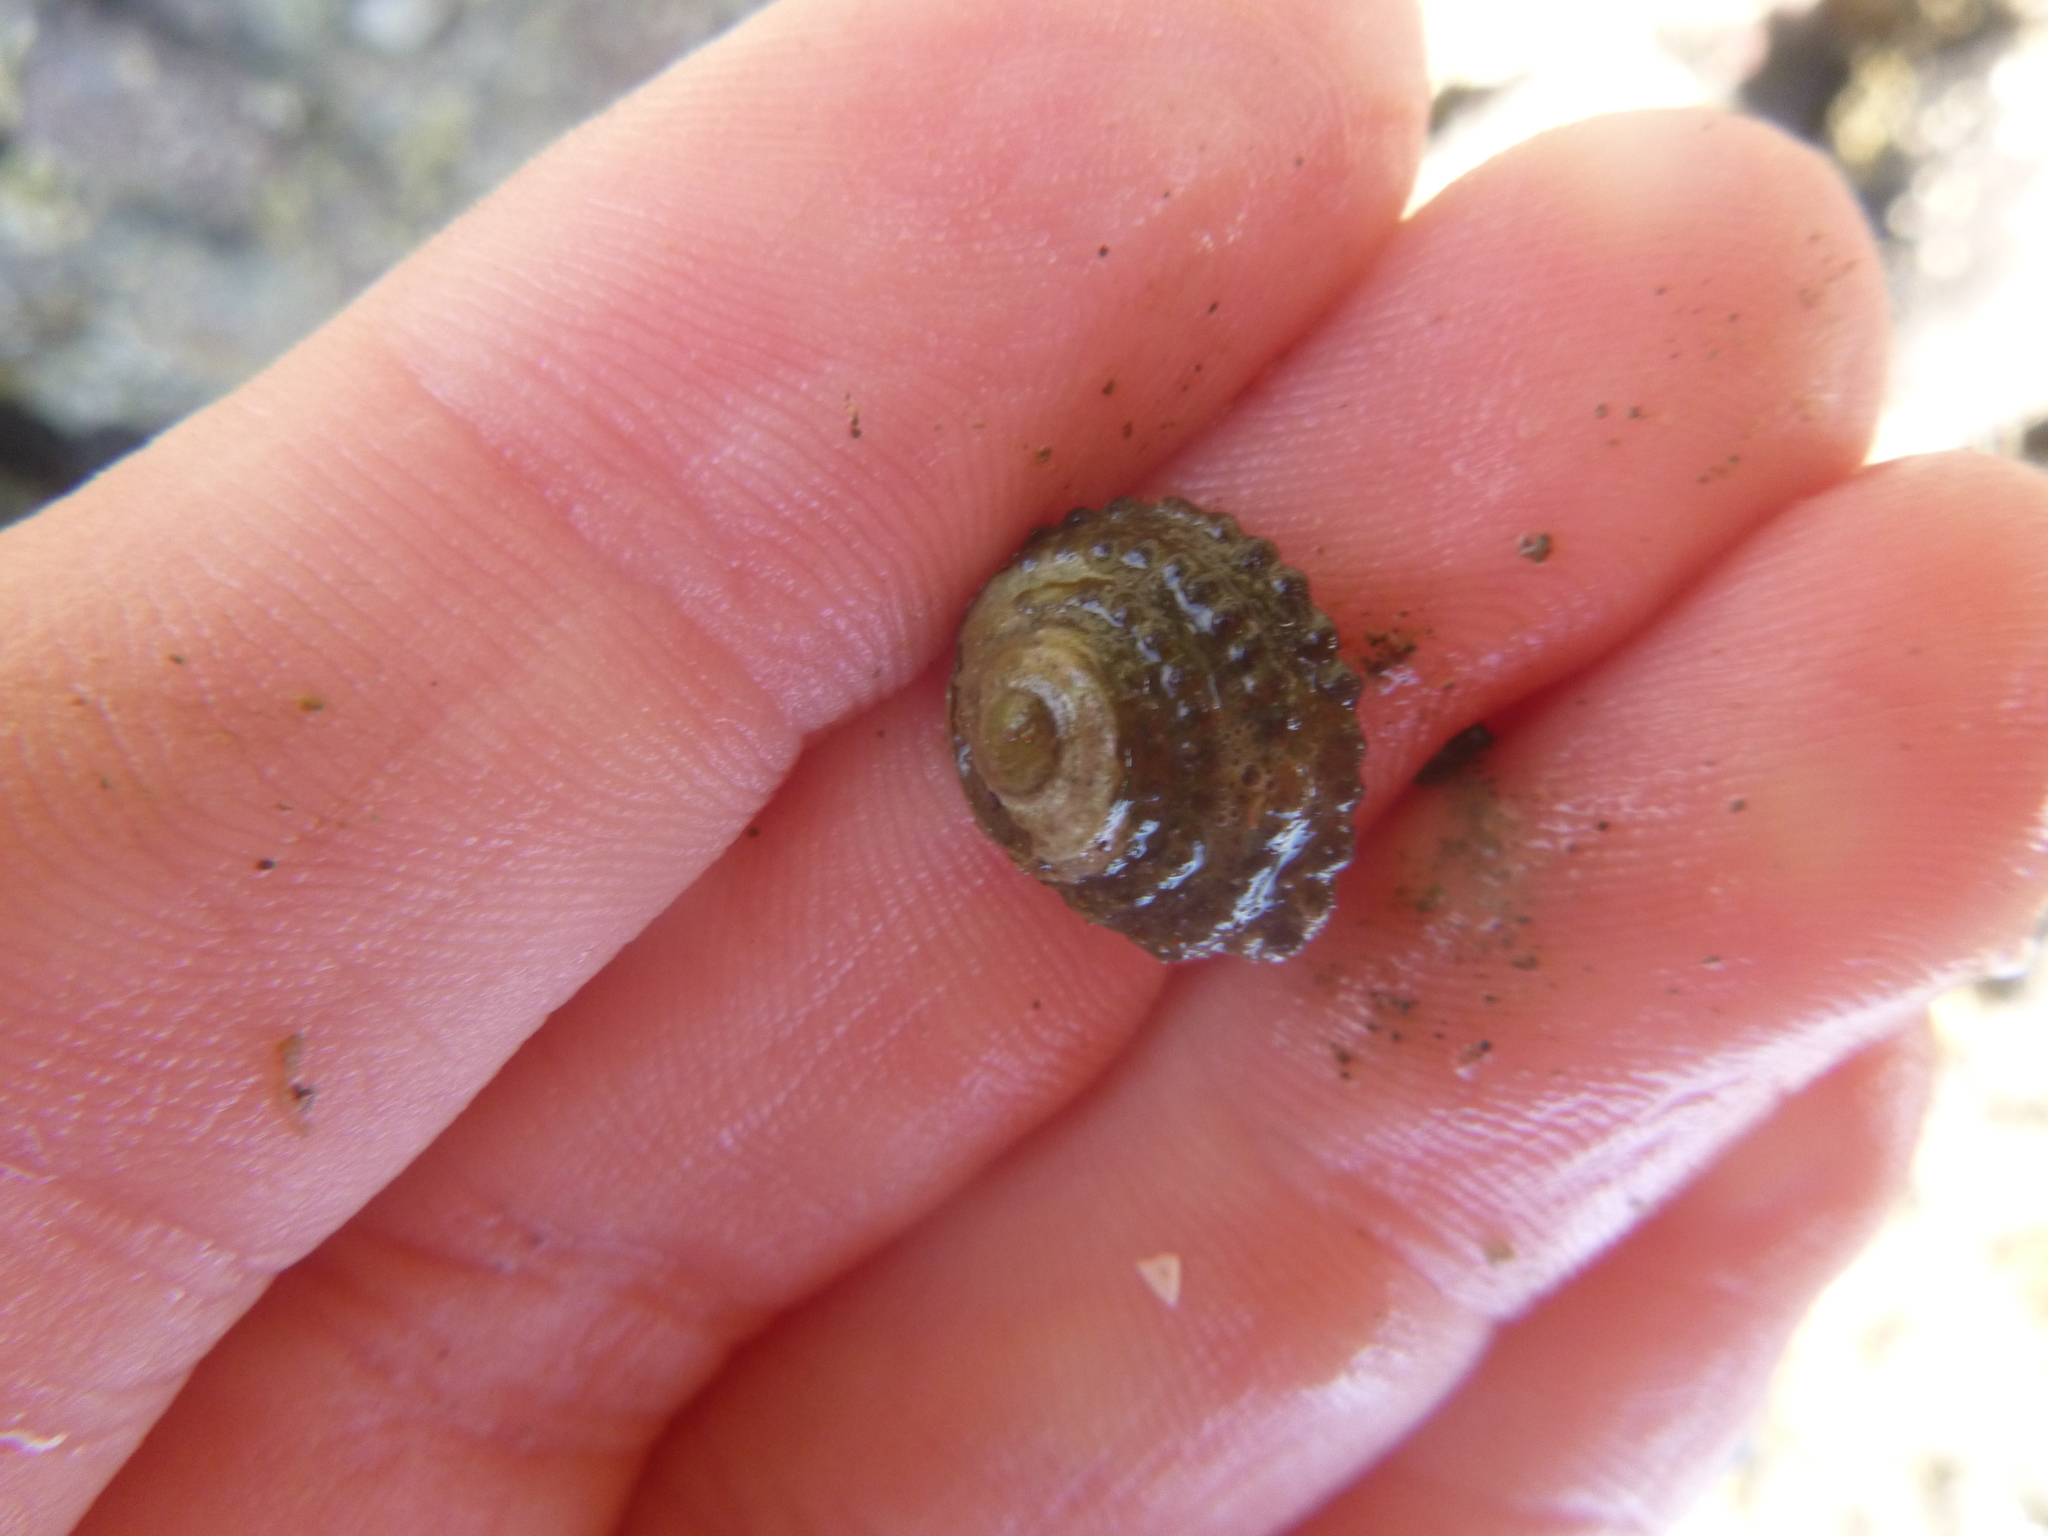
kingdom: Animalia
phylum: Mollusca
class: Gastropoda
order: Trochida
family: Trochidae
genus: Diloma
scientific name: Diloma bicanaliculatum
